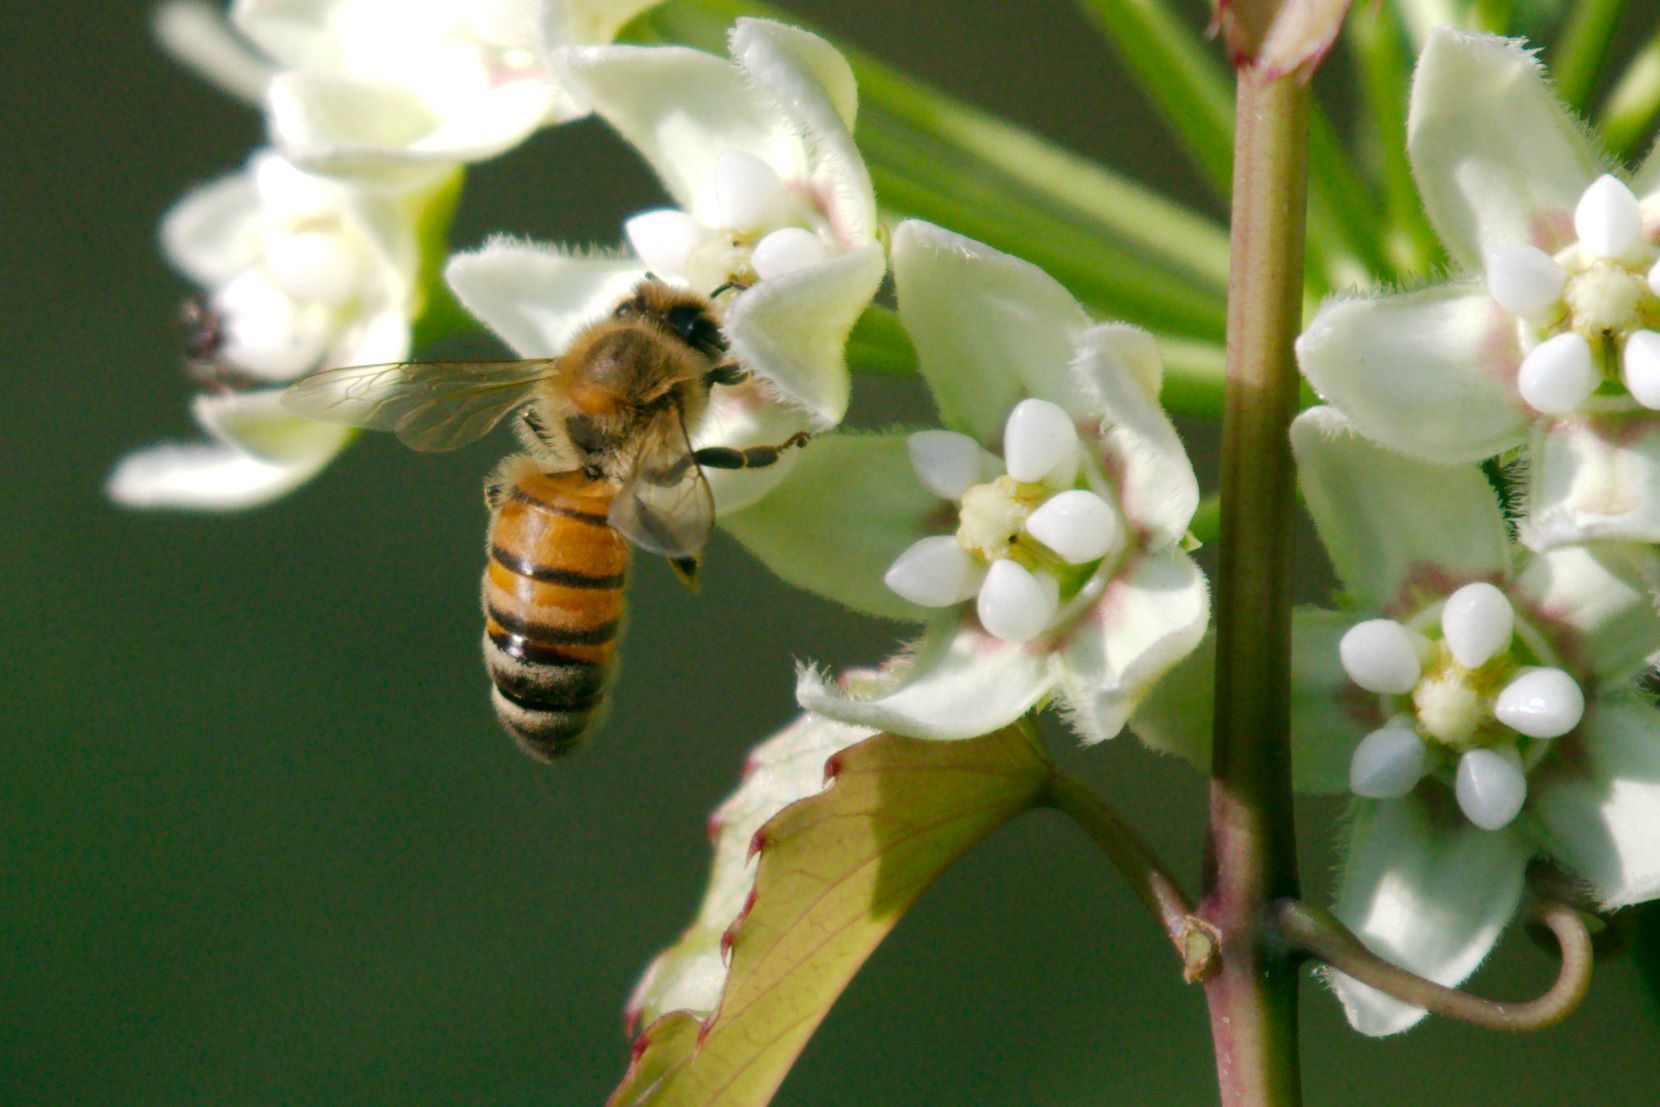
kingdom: Animalia
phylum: Arthropoda
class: Insecta
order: Hymenoptera
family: Apidae
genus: Apis
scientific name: Apis mellifera
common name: Honey bee
